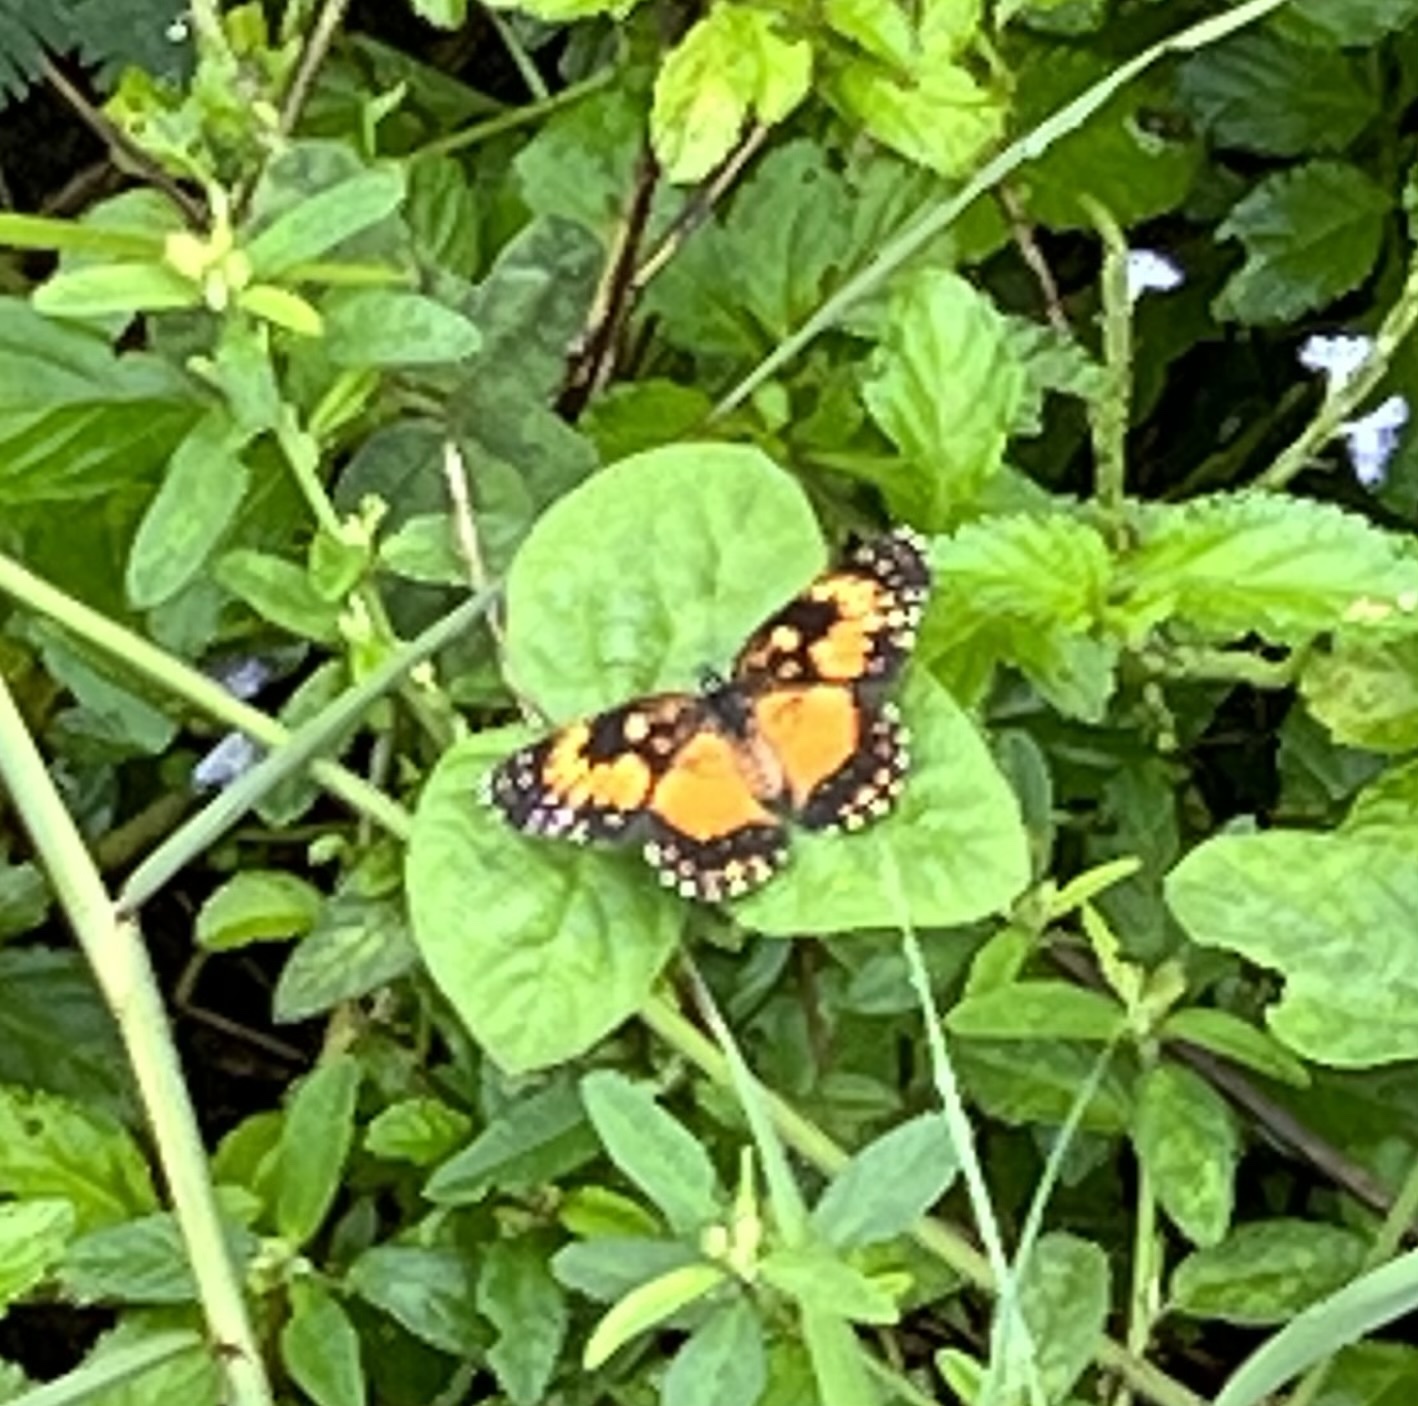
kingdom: Animalia
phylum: Arthropoda
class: Insecta
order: Lepidoptera
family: Nymphalidae
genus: Chlosyne
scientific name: Chlosyne lacinia
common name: Bordered patch
